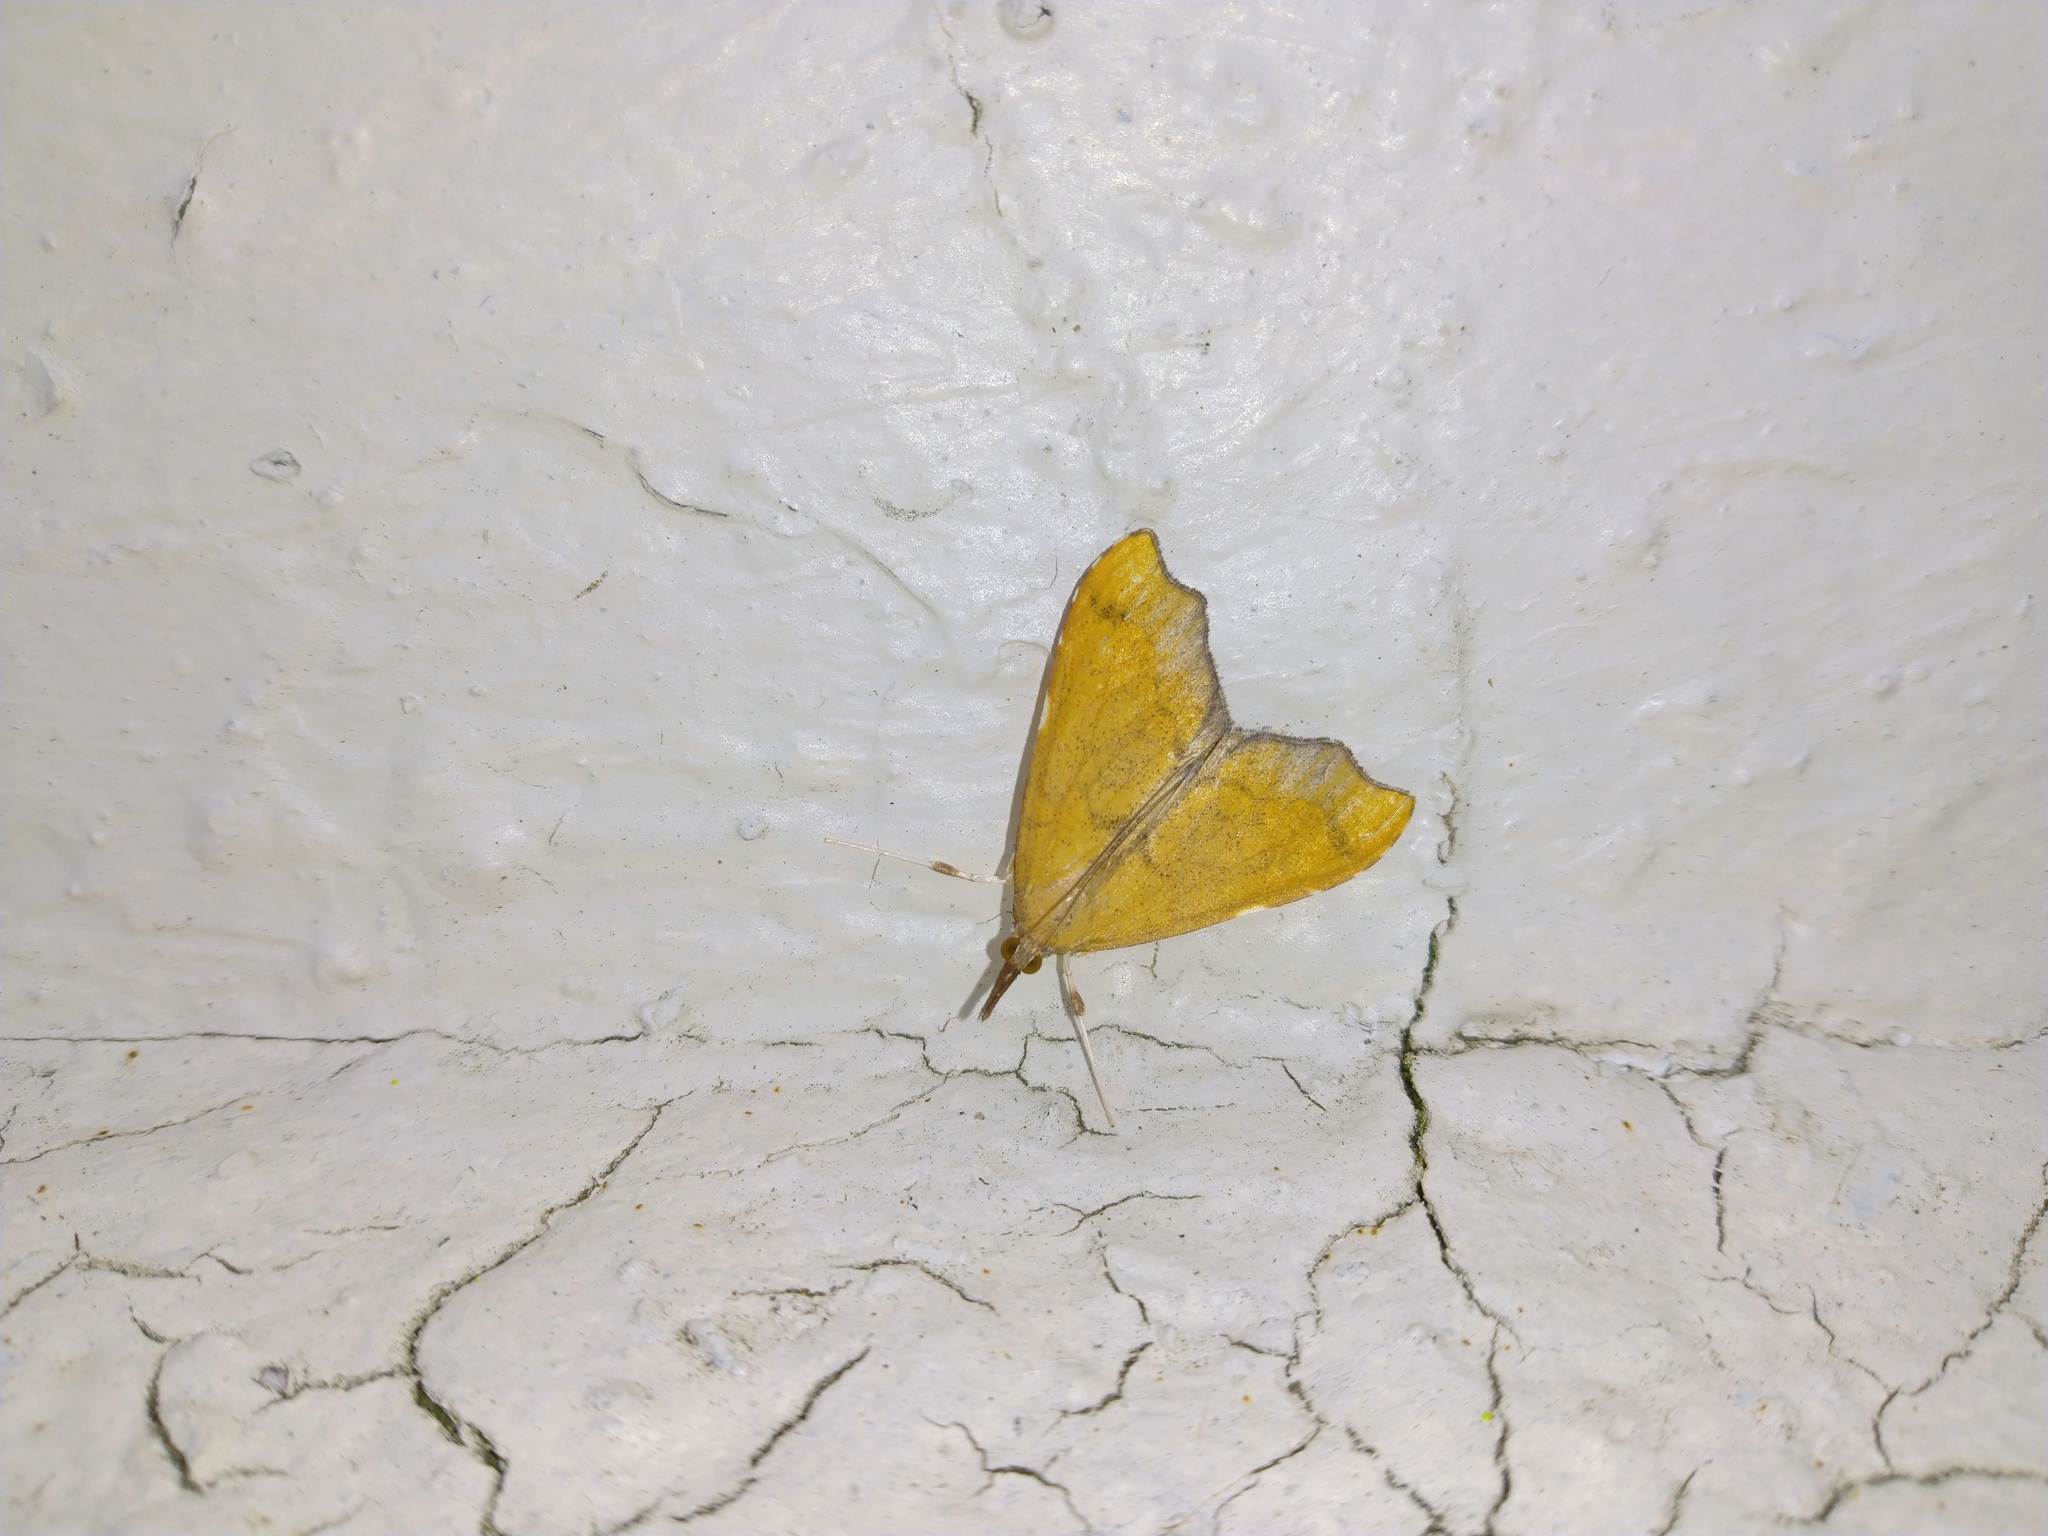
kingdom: Animalia
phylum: Arthropoda
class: Insecta
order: Lepidoptera
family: Crambidae
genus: Deana
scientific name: Deana hybreasalis
